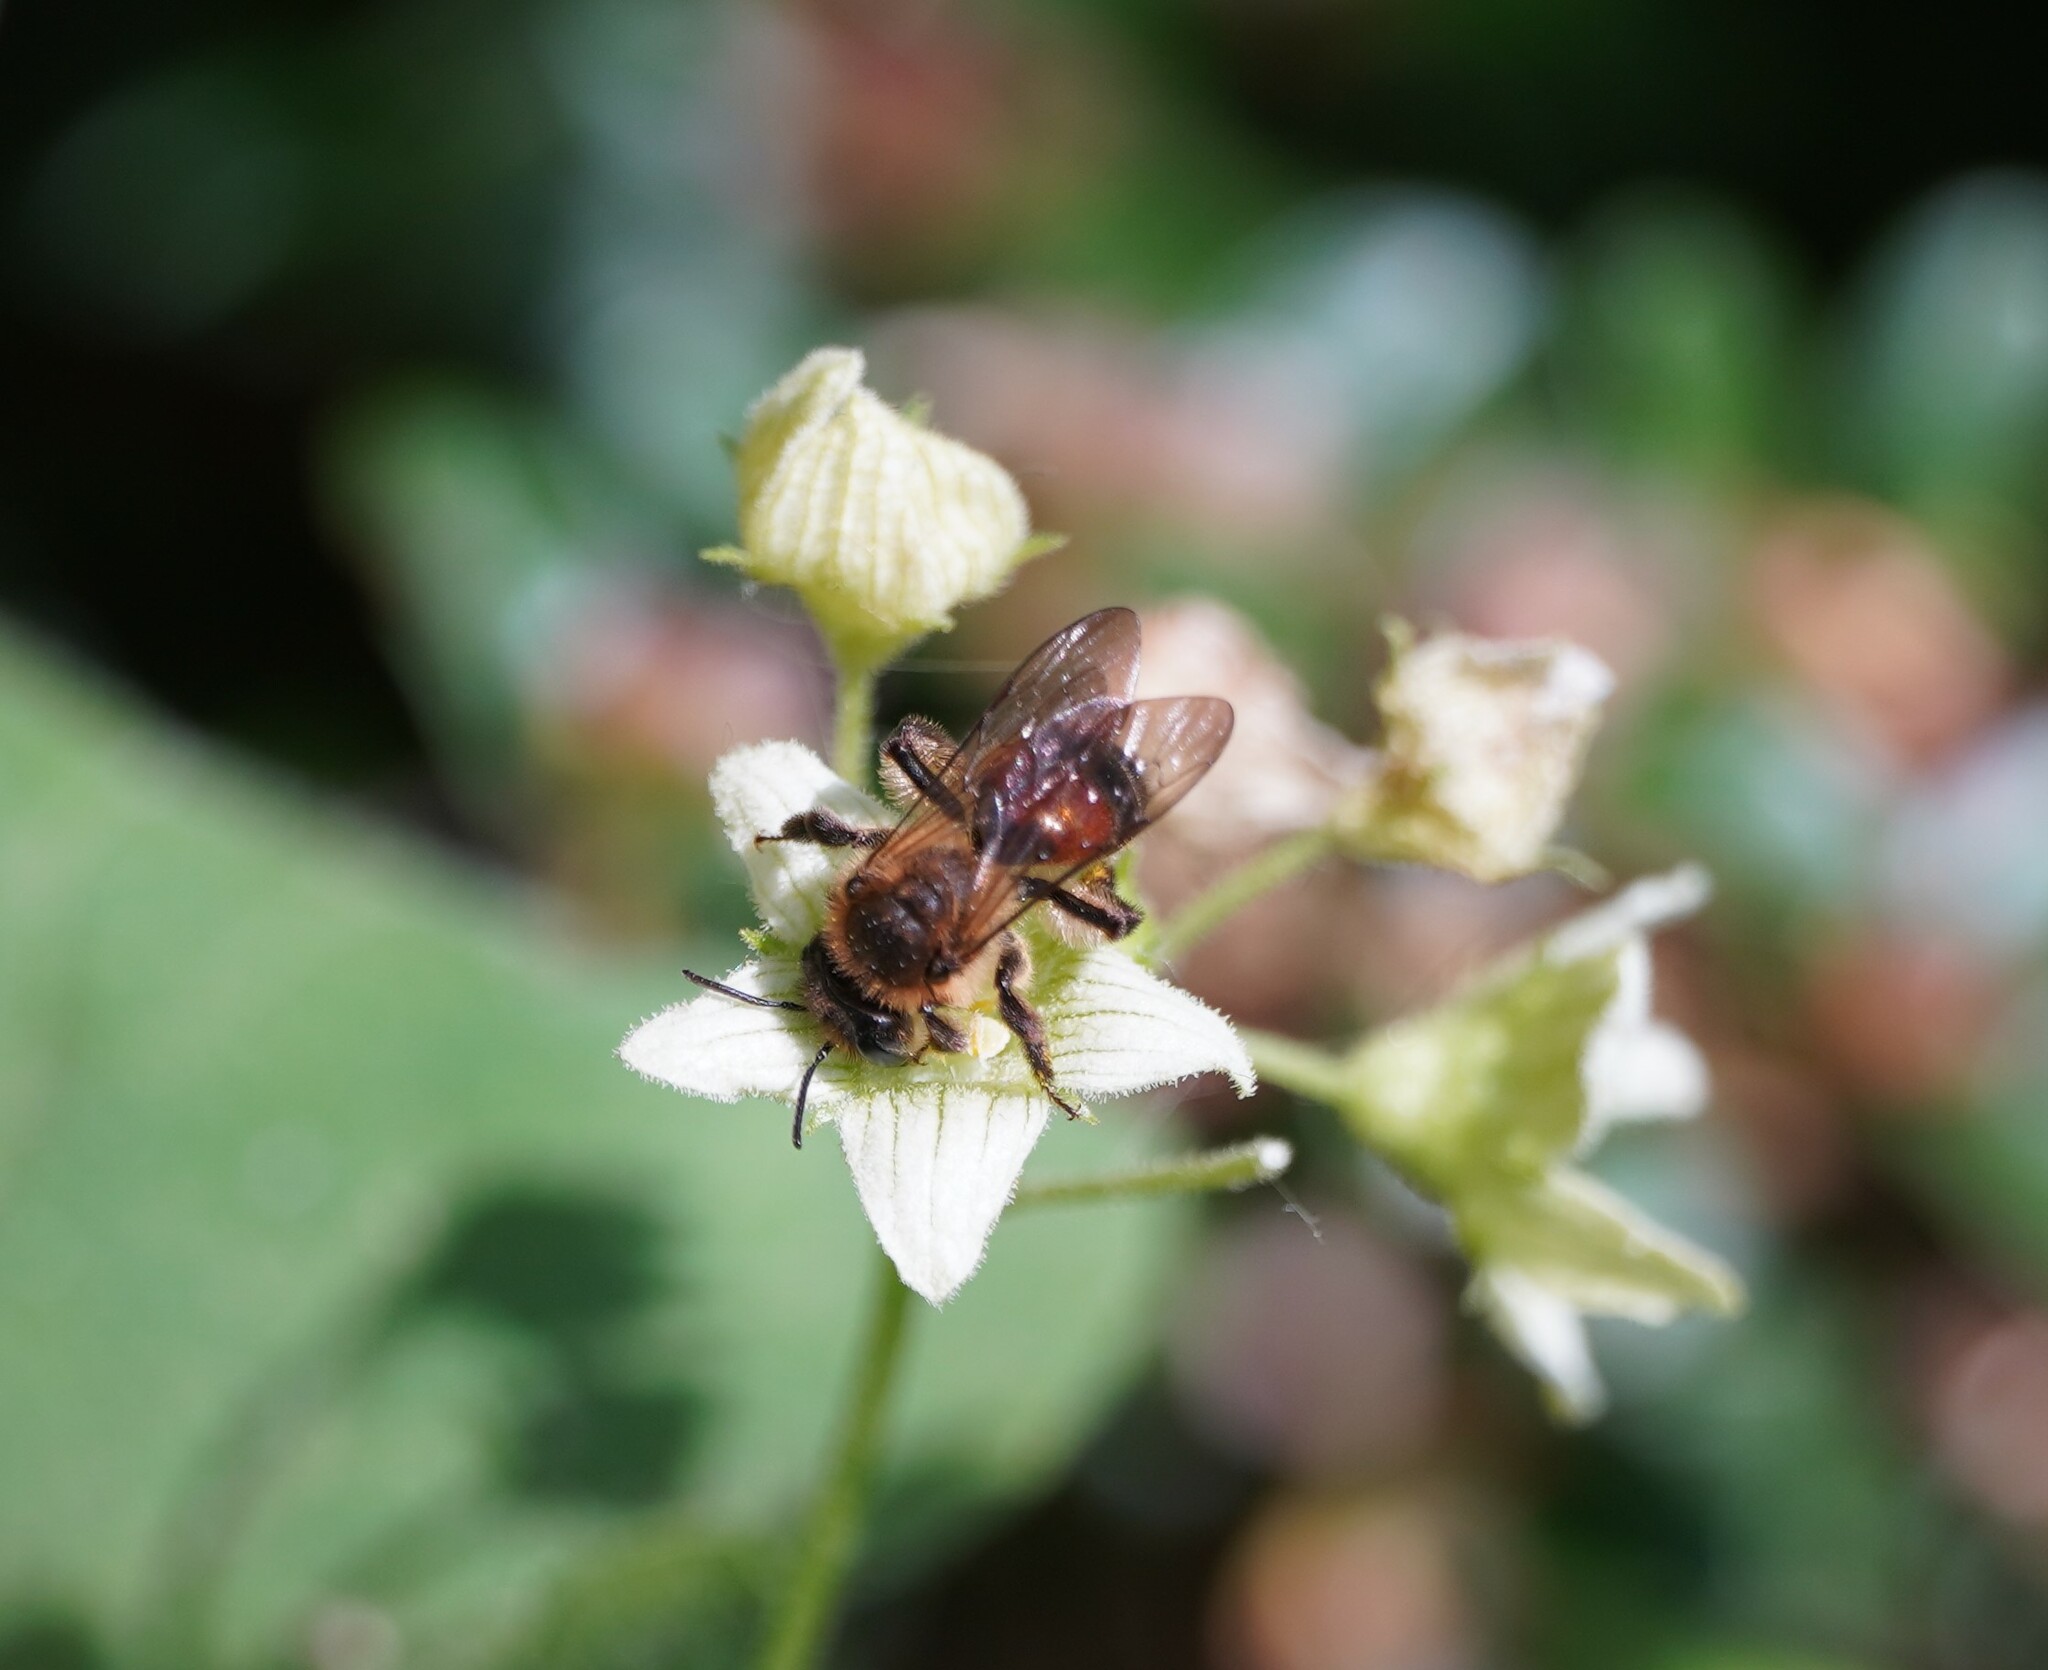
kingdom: Animalia
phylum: Arthropoda
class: Insecta
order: Hymenoptera
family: Andrenidae
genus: Andrena
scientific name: Andrena florea
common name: Bryony mining bee
